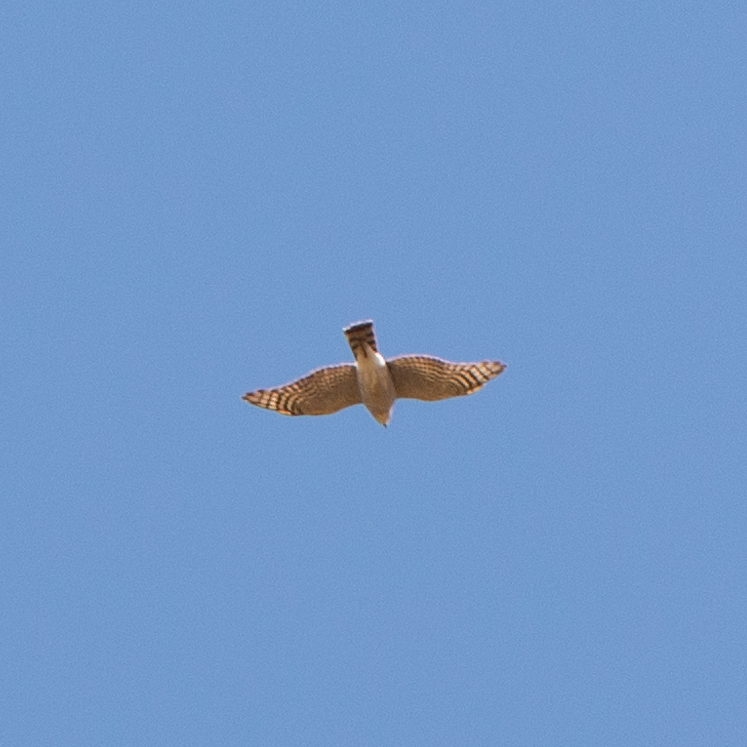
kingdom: Animalia
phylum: Chordata
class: Aves
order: Accipitriformes
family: Accipitridae
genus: Accipiter
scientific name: Accipiter nisus
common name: Eurasian sparrowhawk
